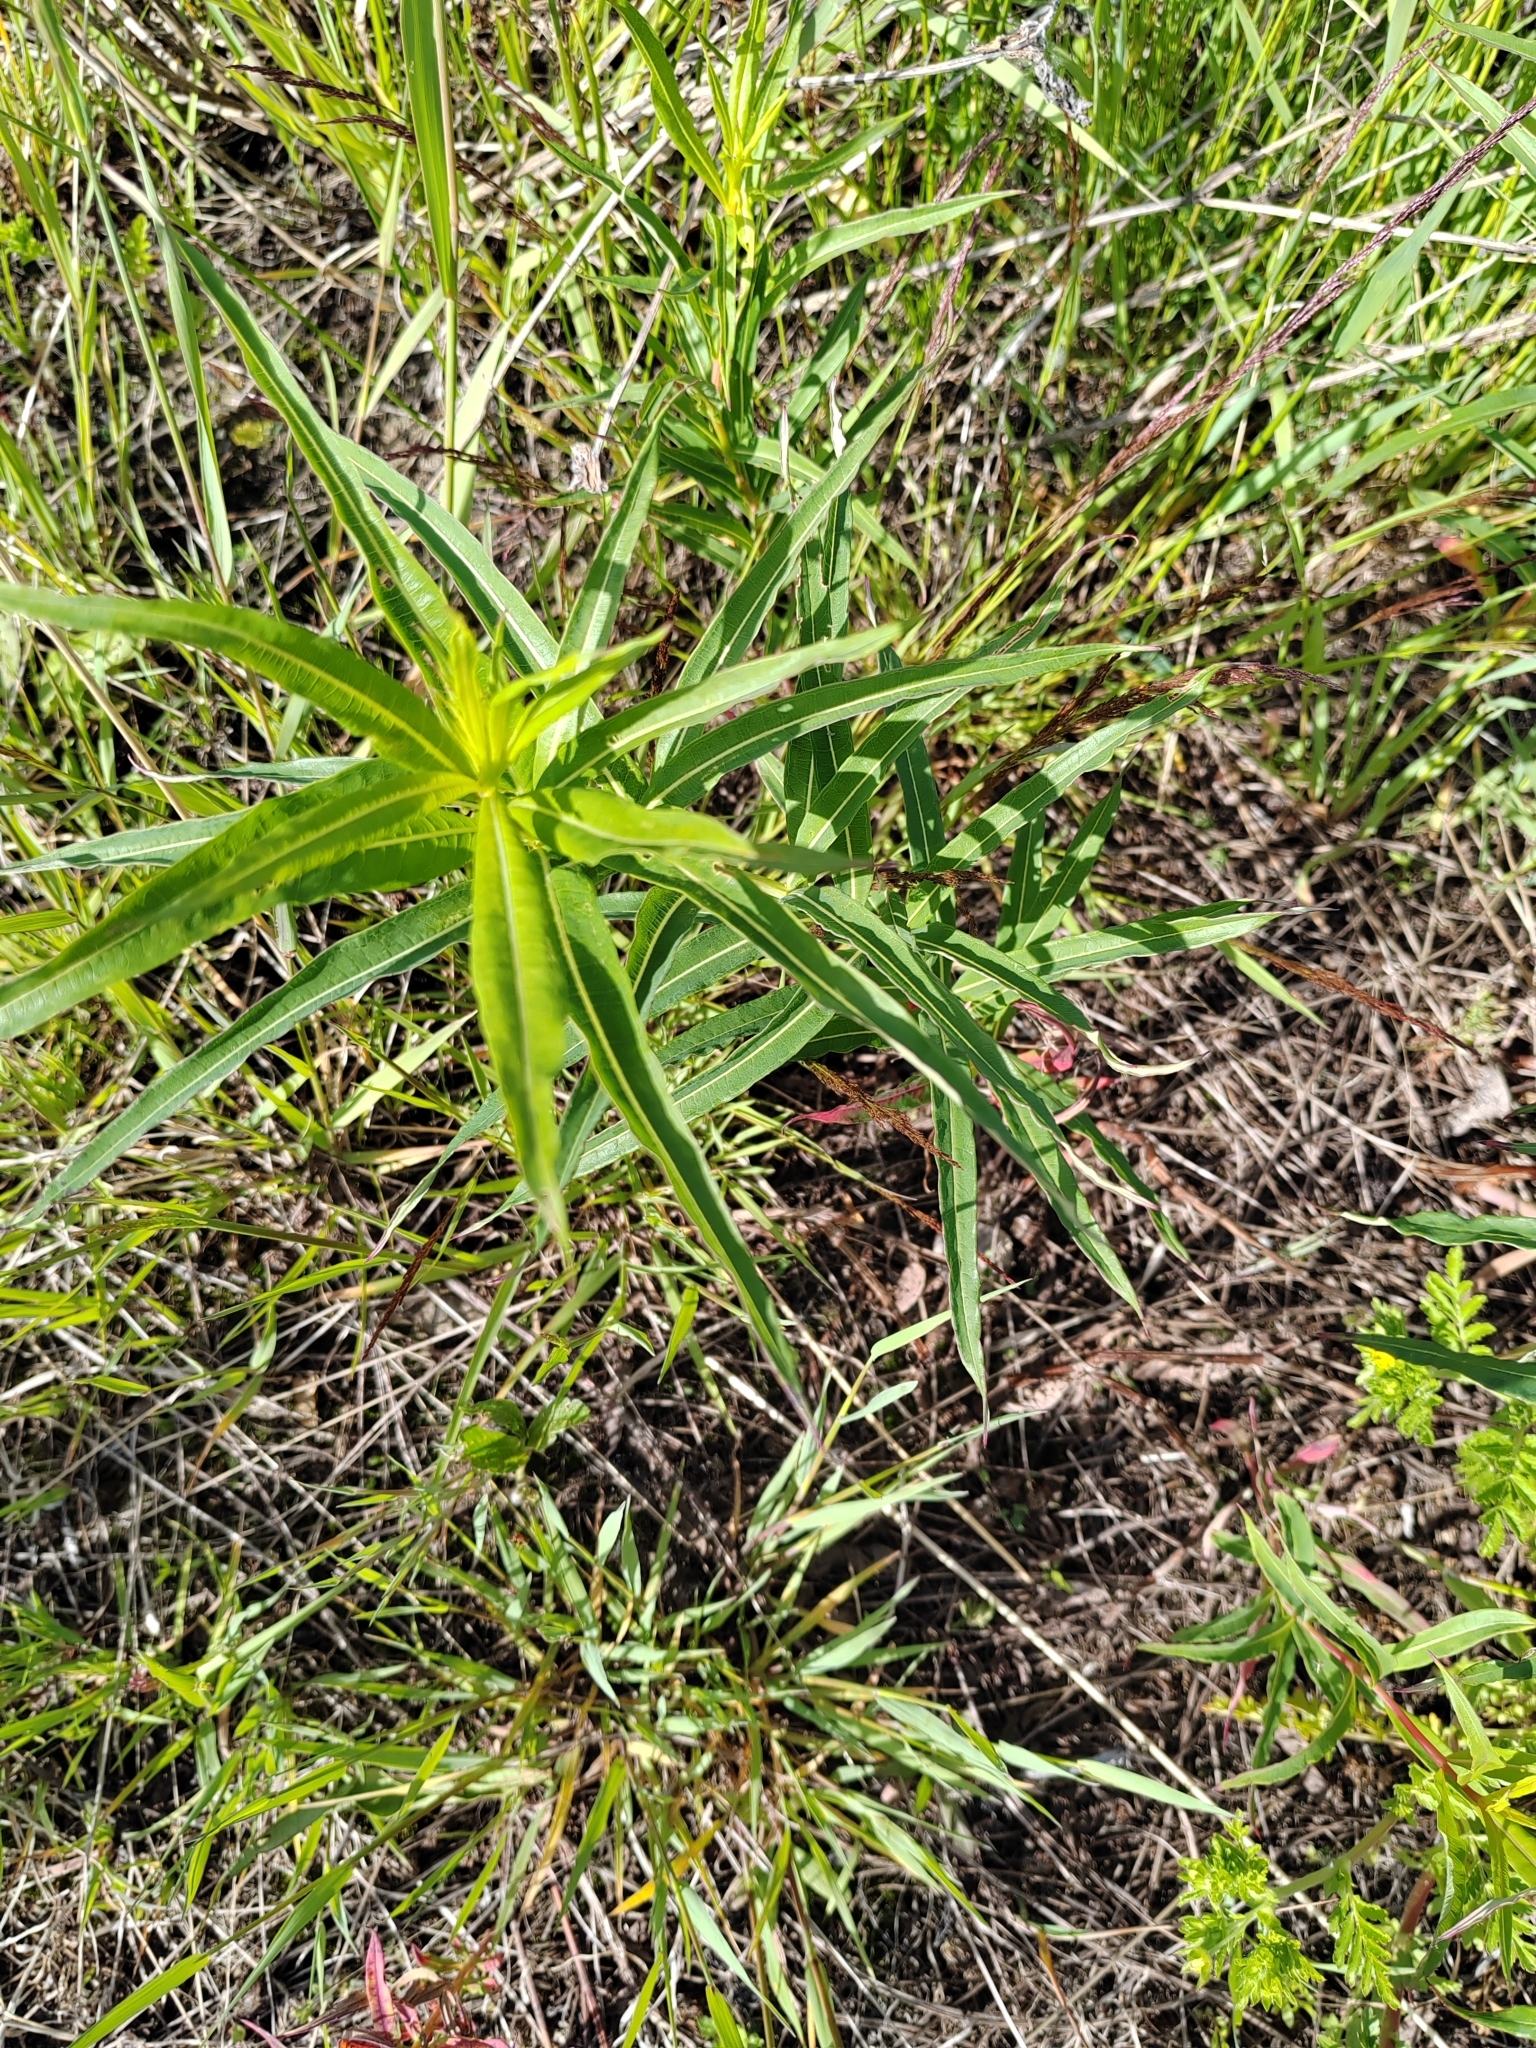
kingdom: Plantae
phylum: Tracheophyta
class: Magnoliopsida
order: Myrtales
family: Onagraceae
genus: Chamaenerion
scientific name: Chamaenerion angustifolium
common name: Fireweed
